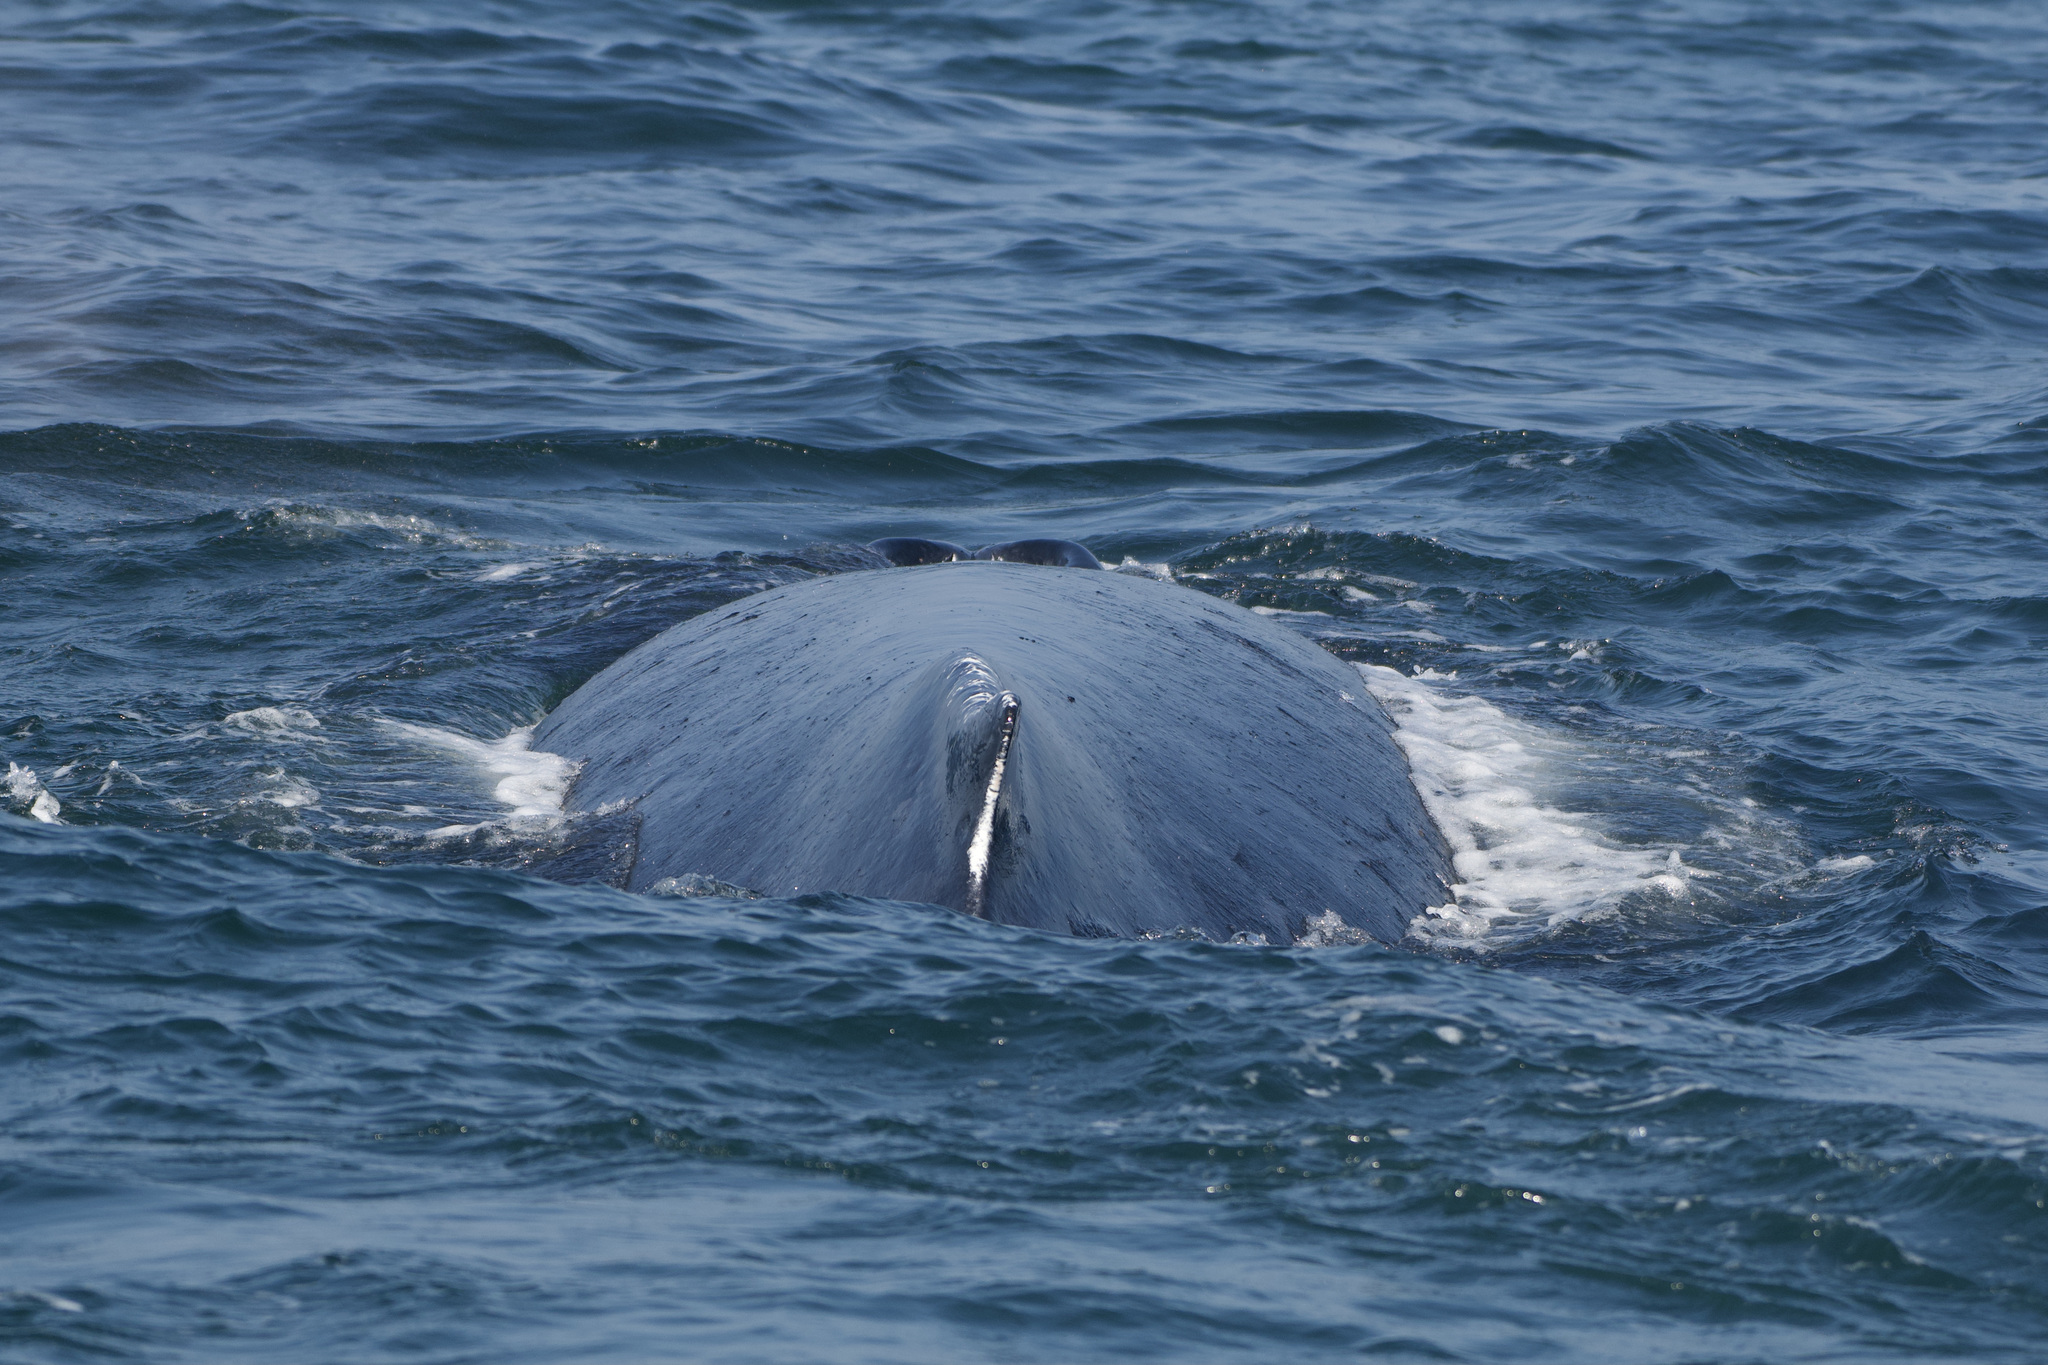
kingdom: Animalia
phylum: Chordata
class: Mammalia
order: Cetacea
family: Balaenopteridae
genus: Megaptera
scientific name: Megaptera novaeangliae
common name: Humpback whale
